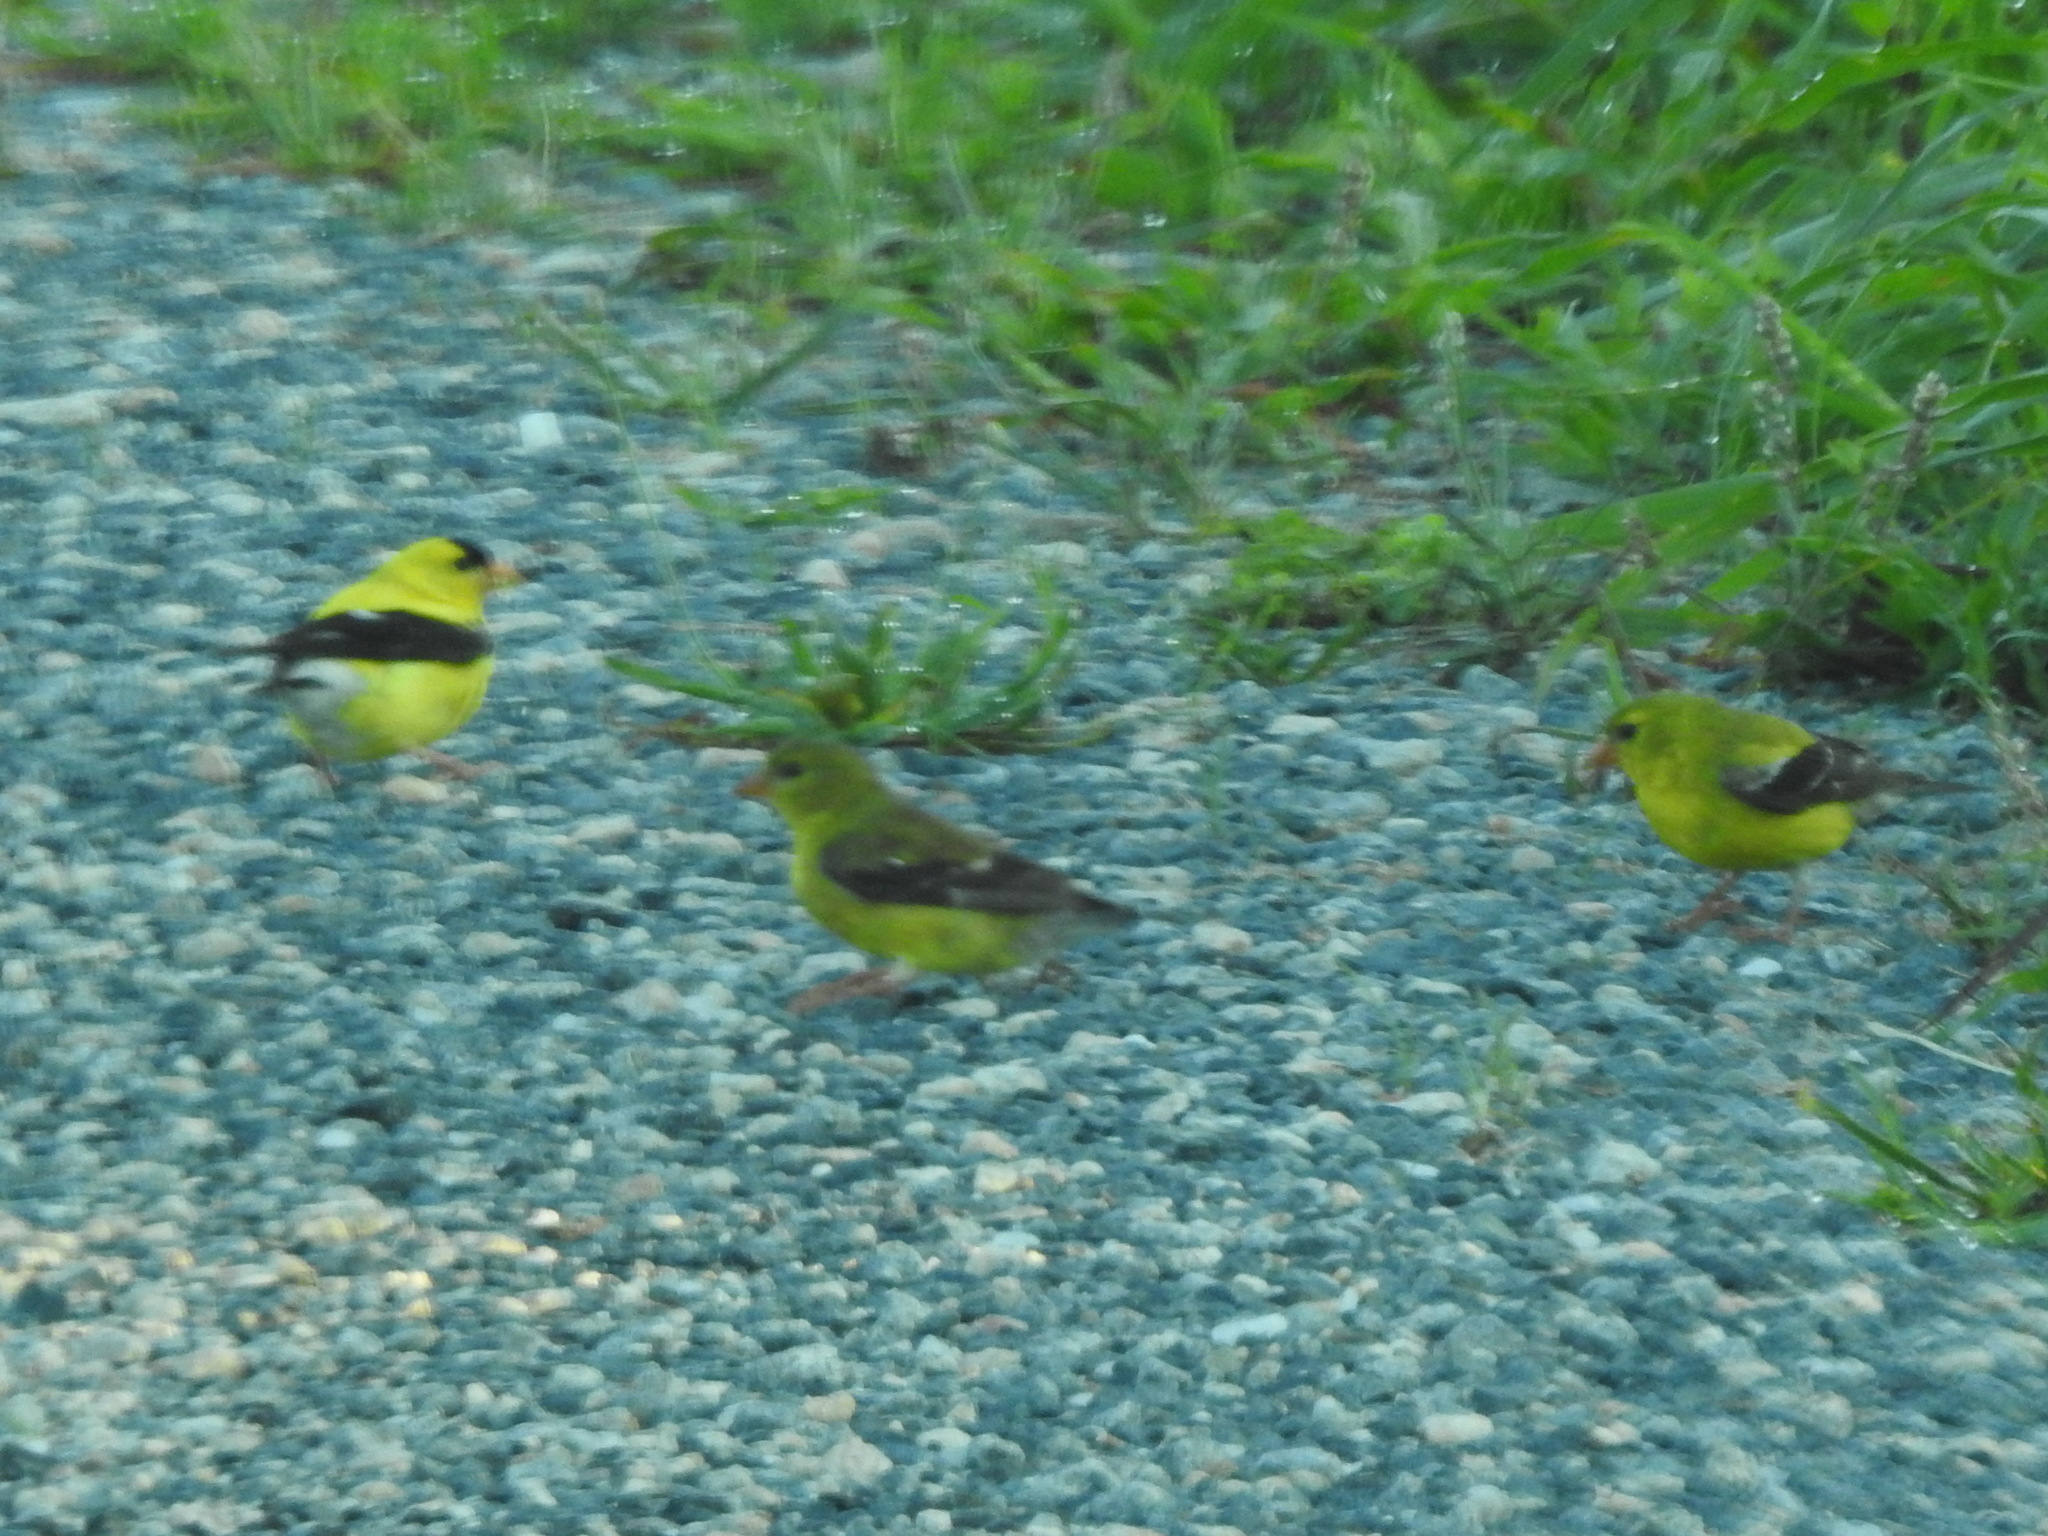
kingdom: Animalia
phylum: Chordata
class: Aves
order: Passeriformes
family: Fringillidae
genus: Spinus
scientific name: Spinus tristis
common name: American goldfinch
